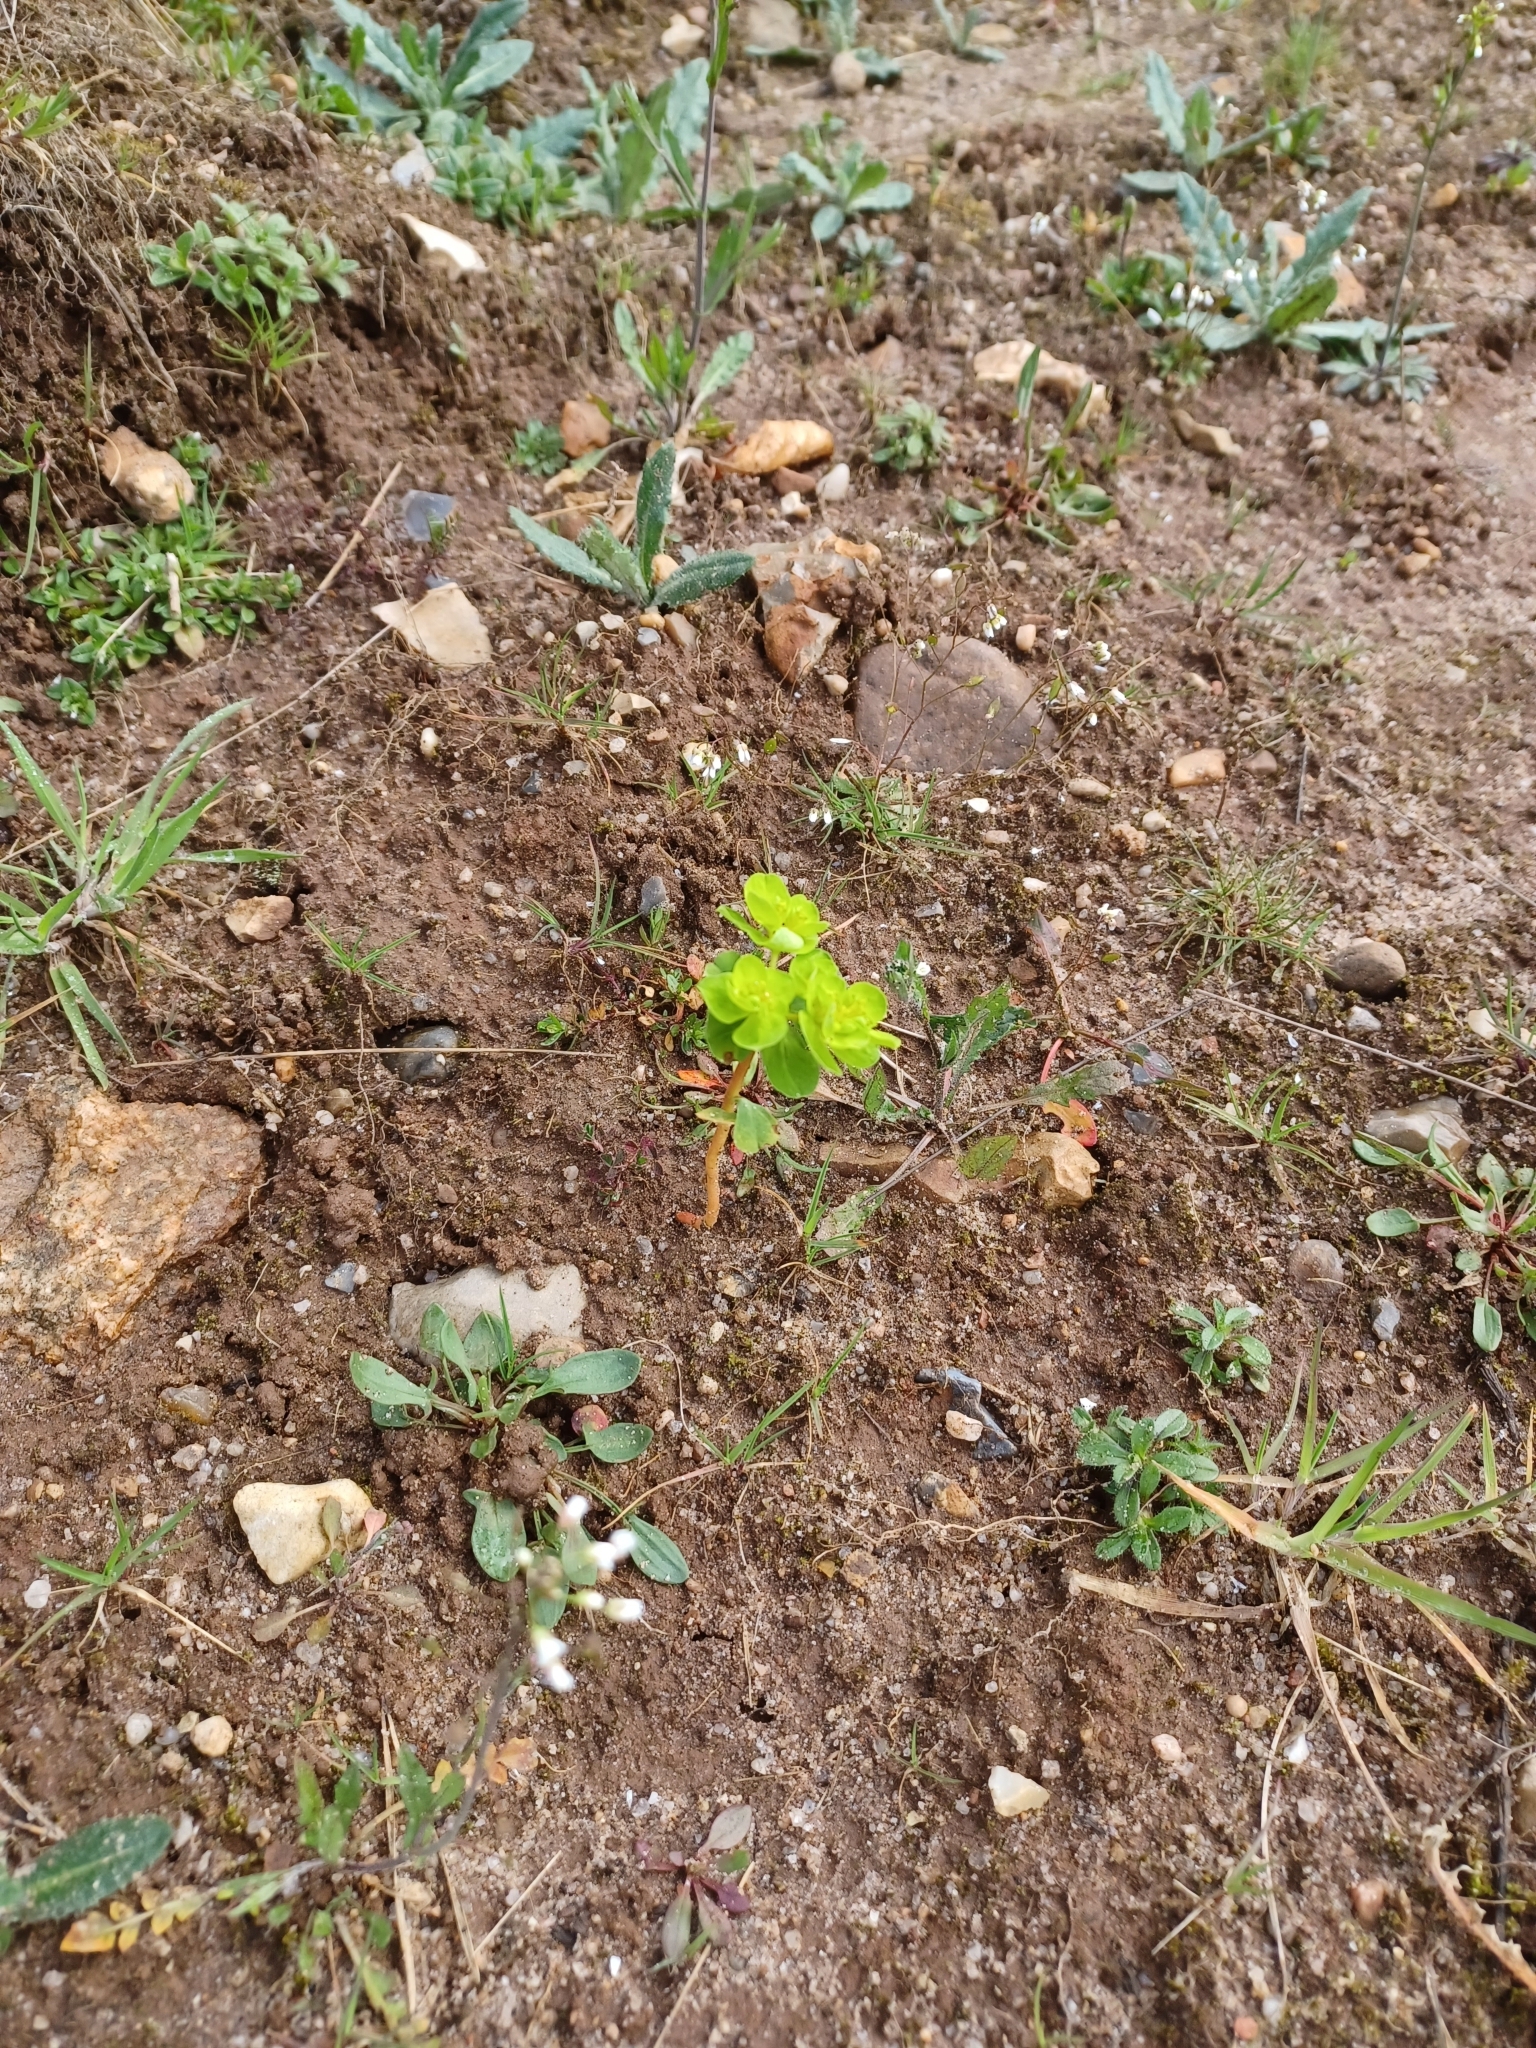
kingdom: Plantae
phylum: Tracheophyta
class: Magnoliopsida
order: Malpighiales
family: Euphorbiaceae
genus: Euphorbia
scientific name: Euphorbia helioscopia
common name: Sun spurge
